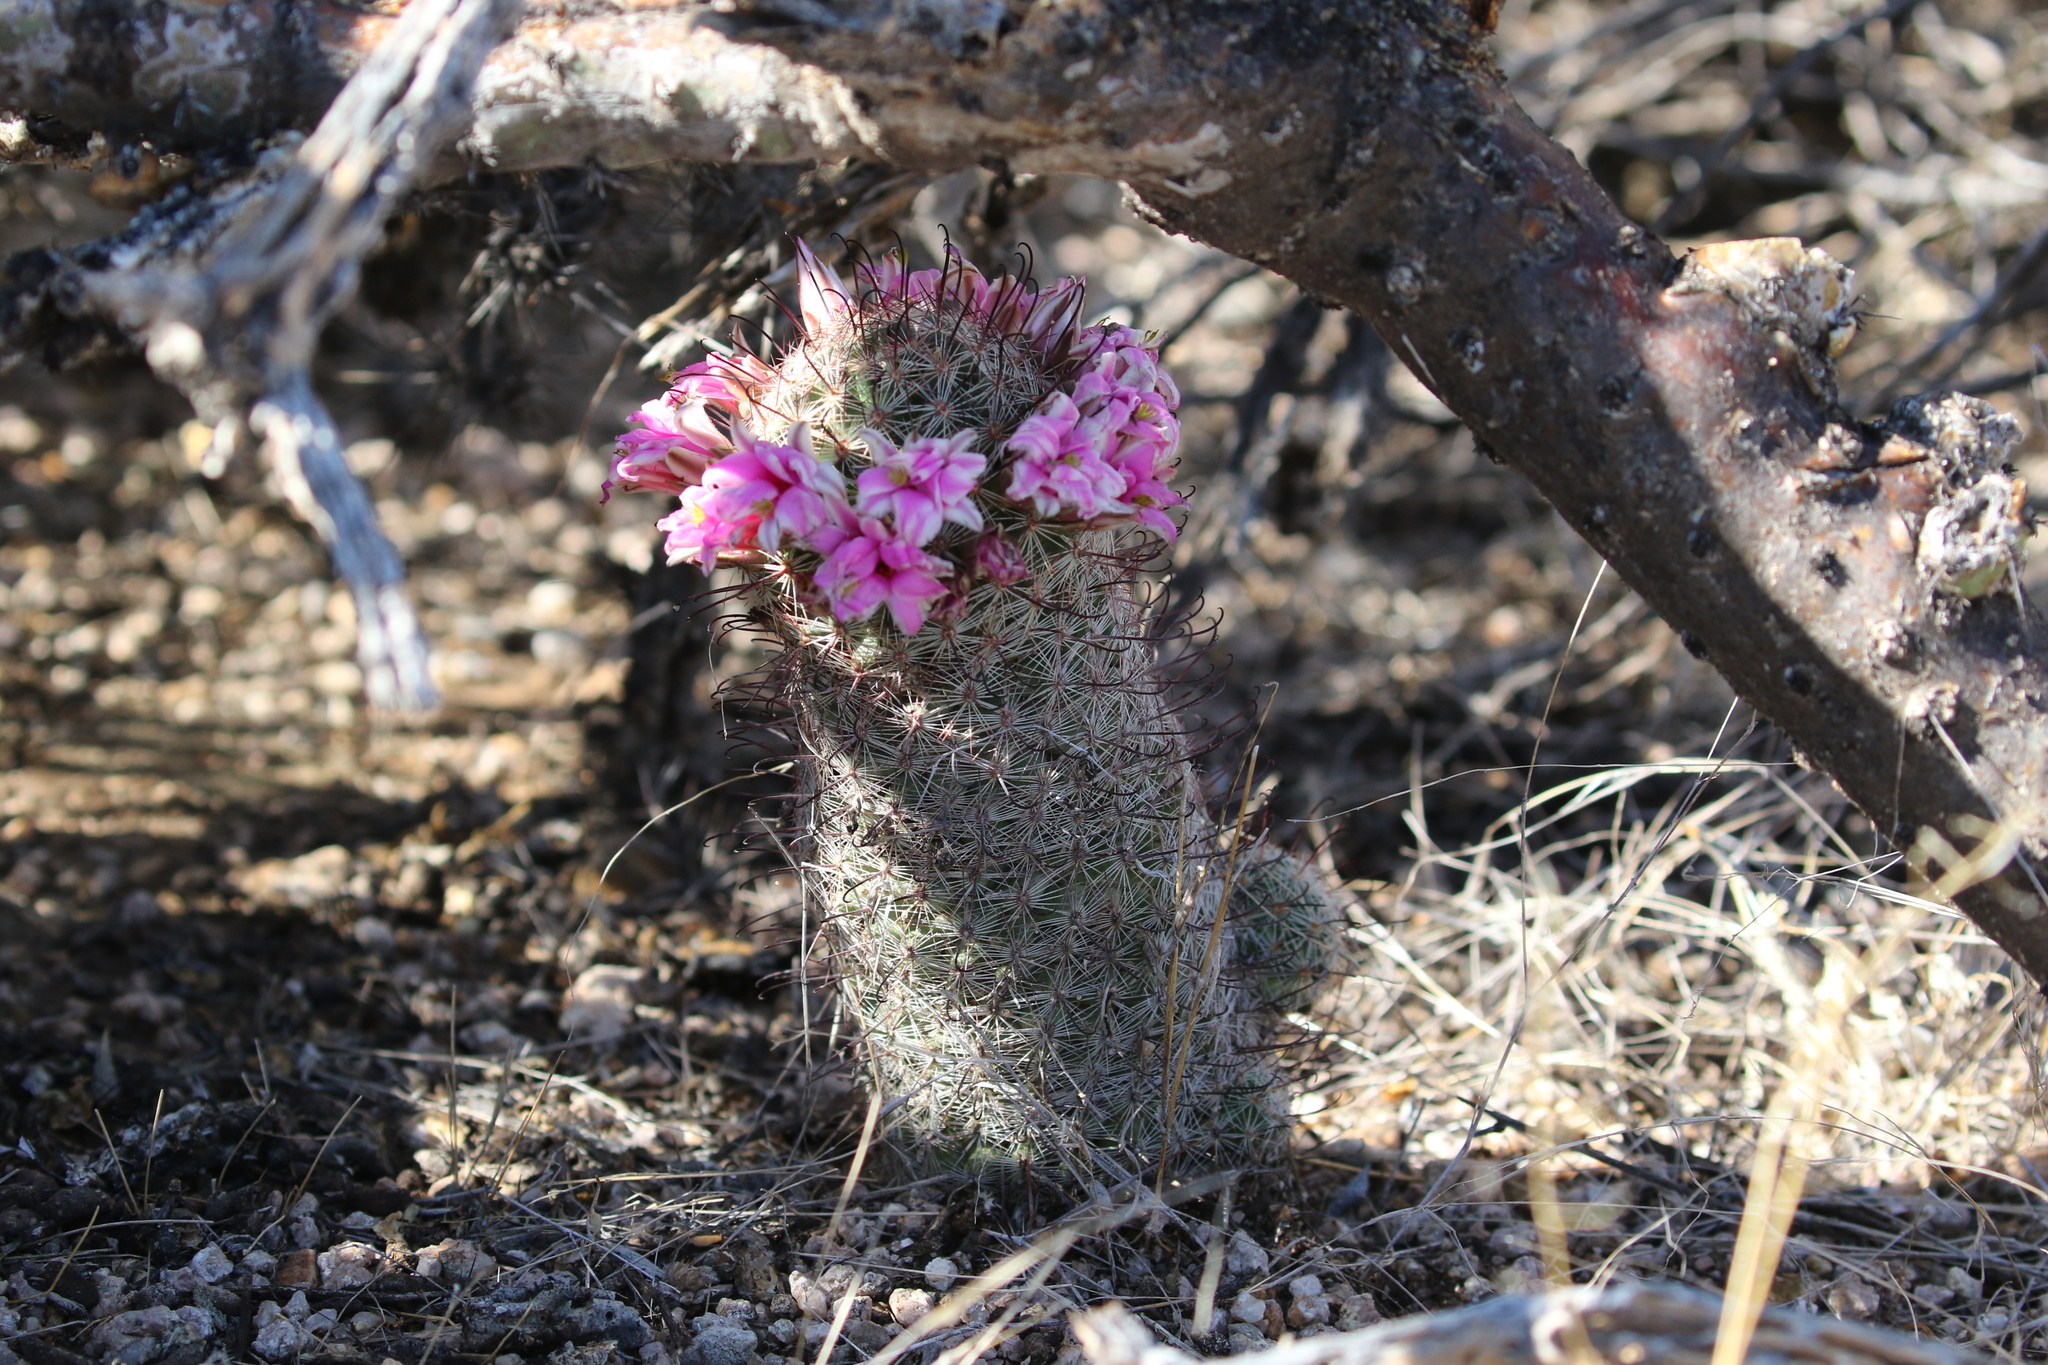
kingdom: Plantae
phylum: Tracheophyta
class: Magnoliopsida
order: Caryophyllales
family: Cactaceae
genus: Cochemiea
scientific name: Cochemiea grahamii
